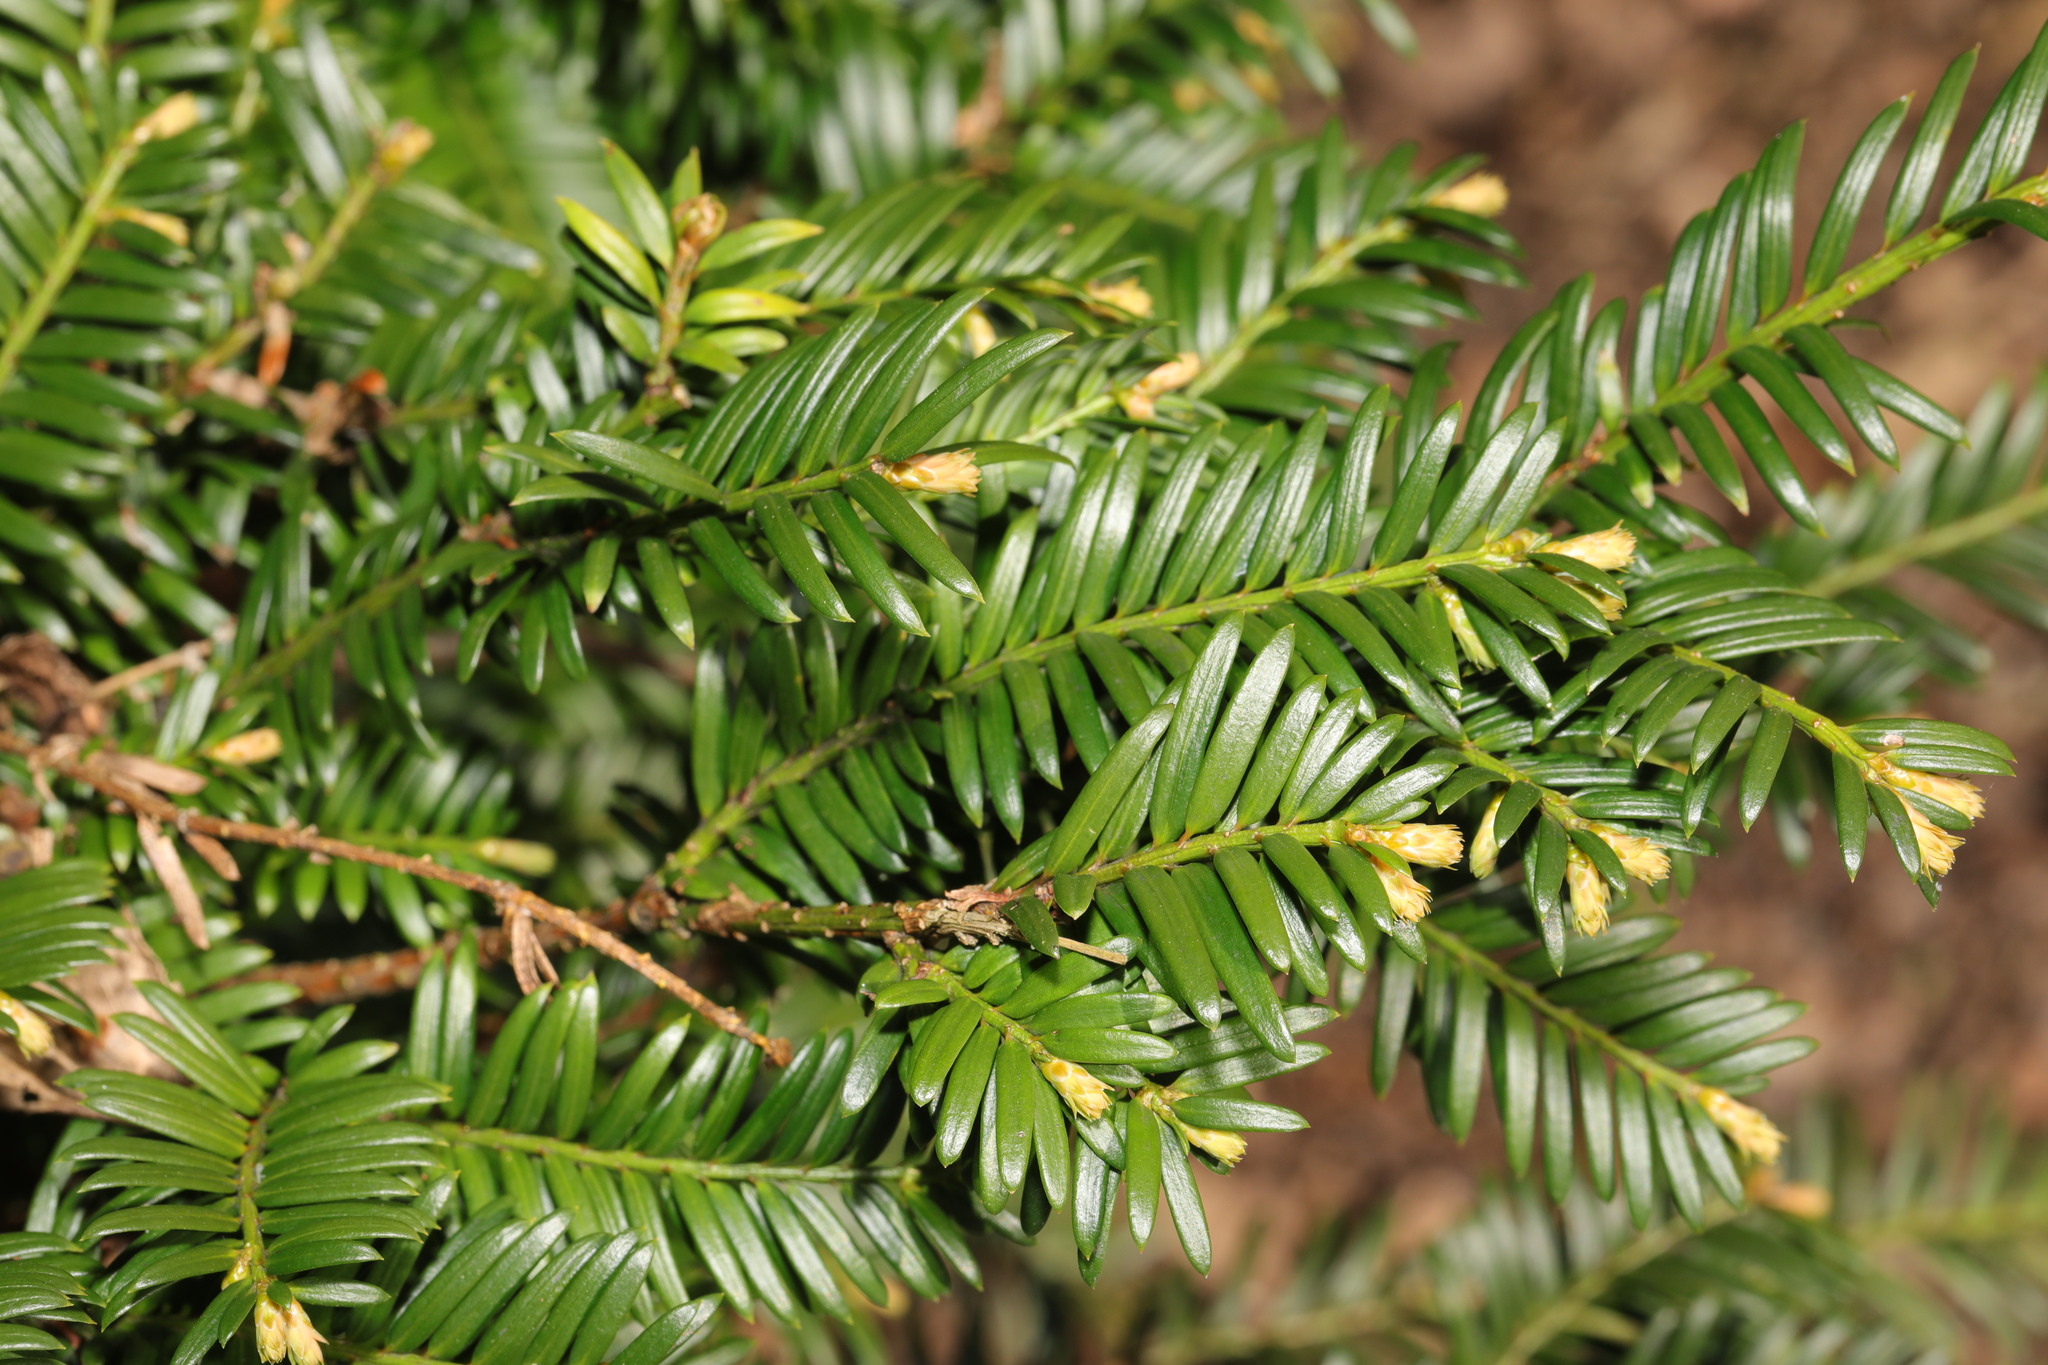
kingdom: Plantae
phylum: Tracheophyta
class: Pinopsida
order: Pinales
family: Taxaceae
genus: Taxus
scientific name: Taxus baccata
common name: Yew
